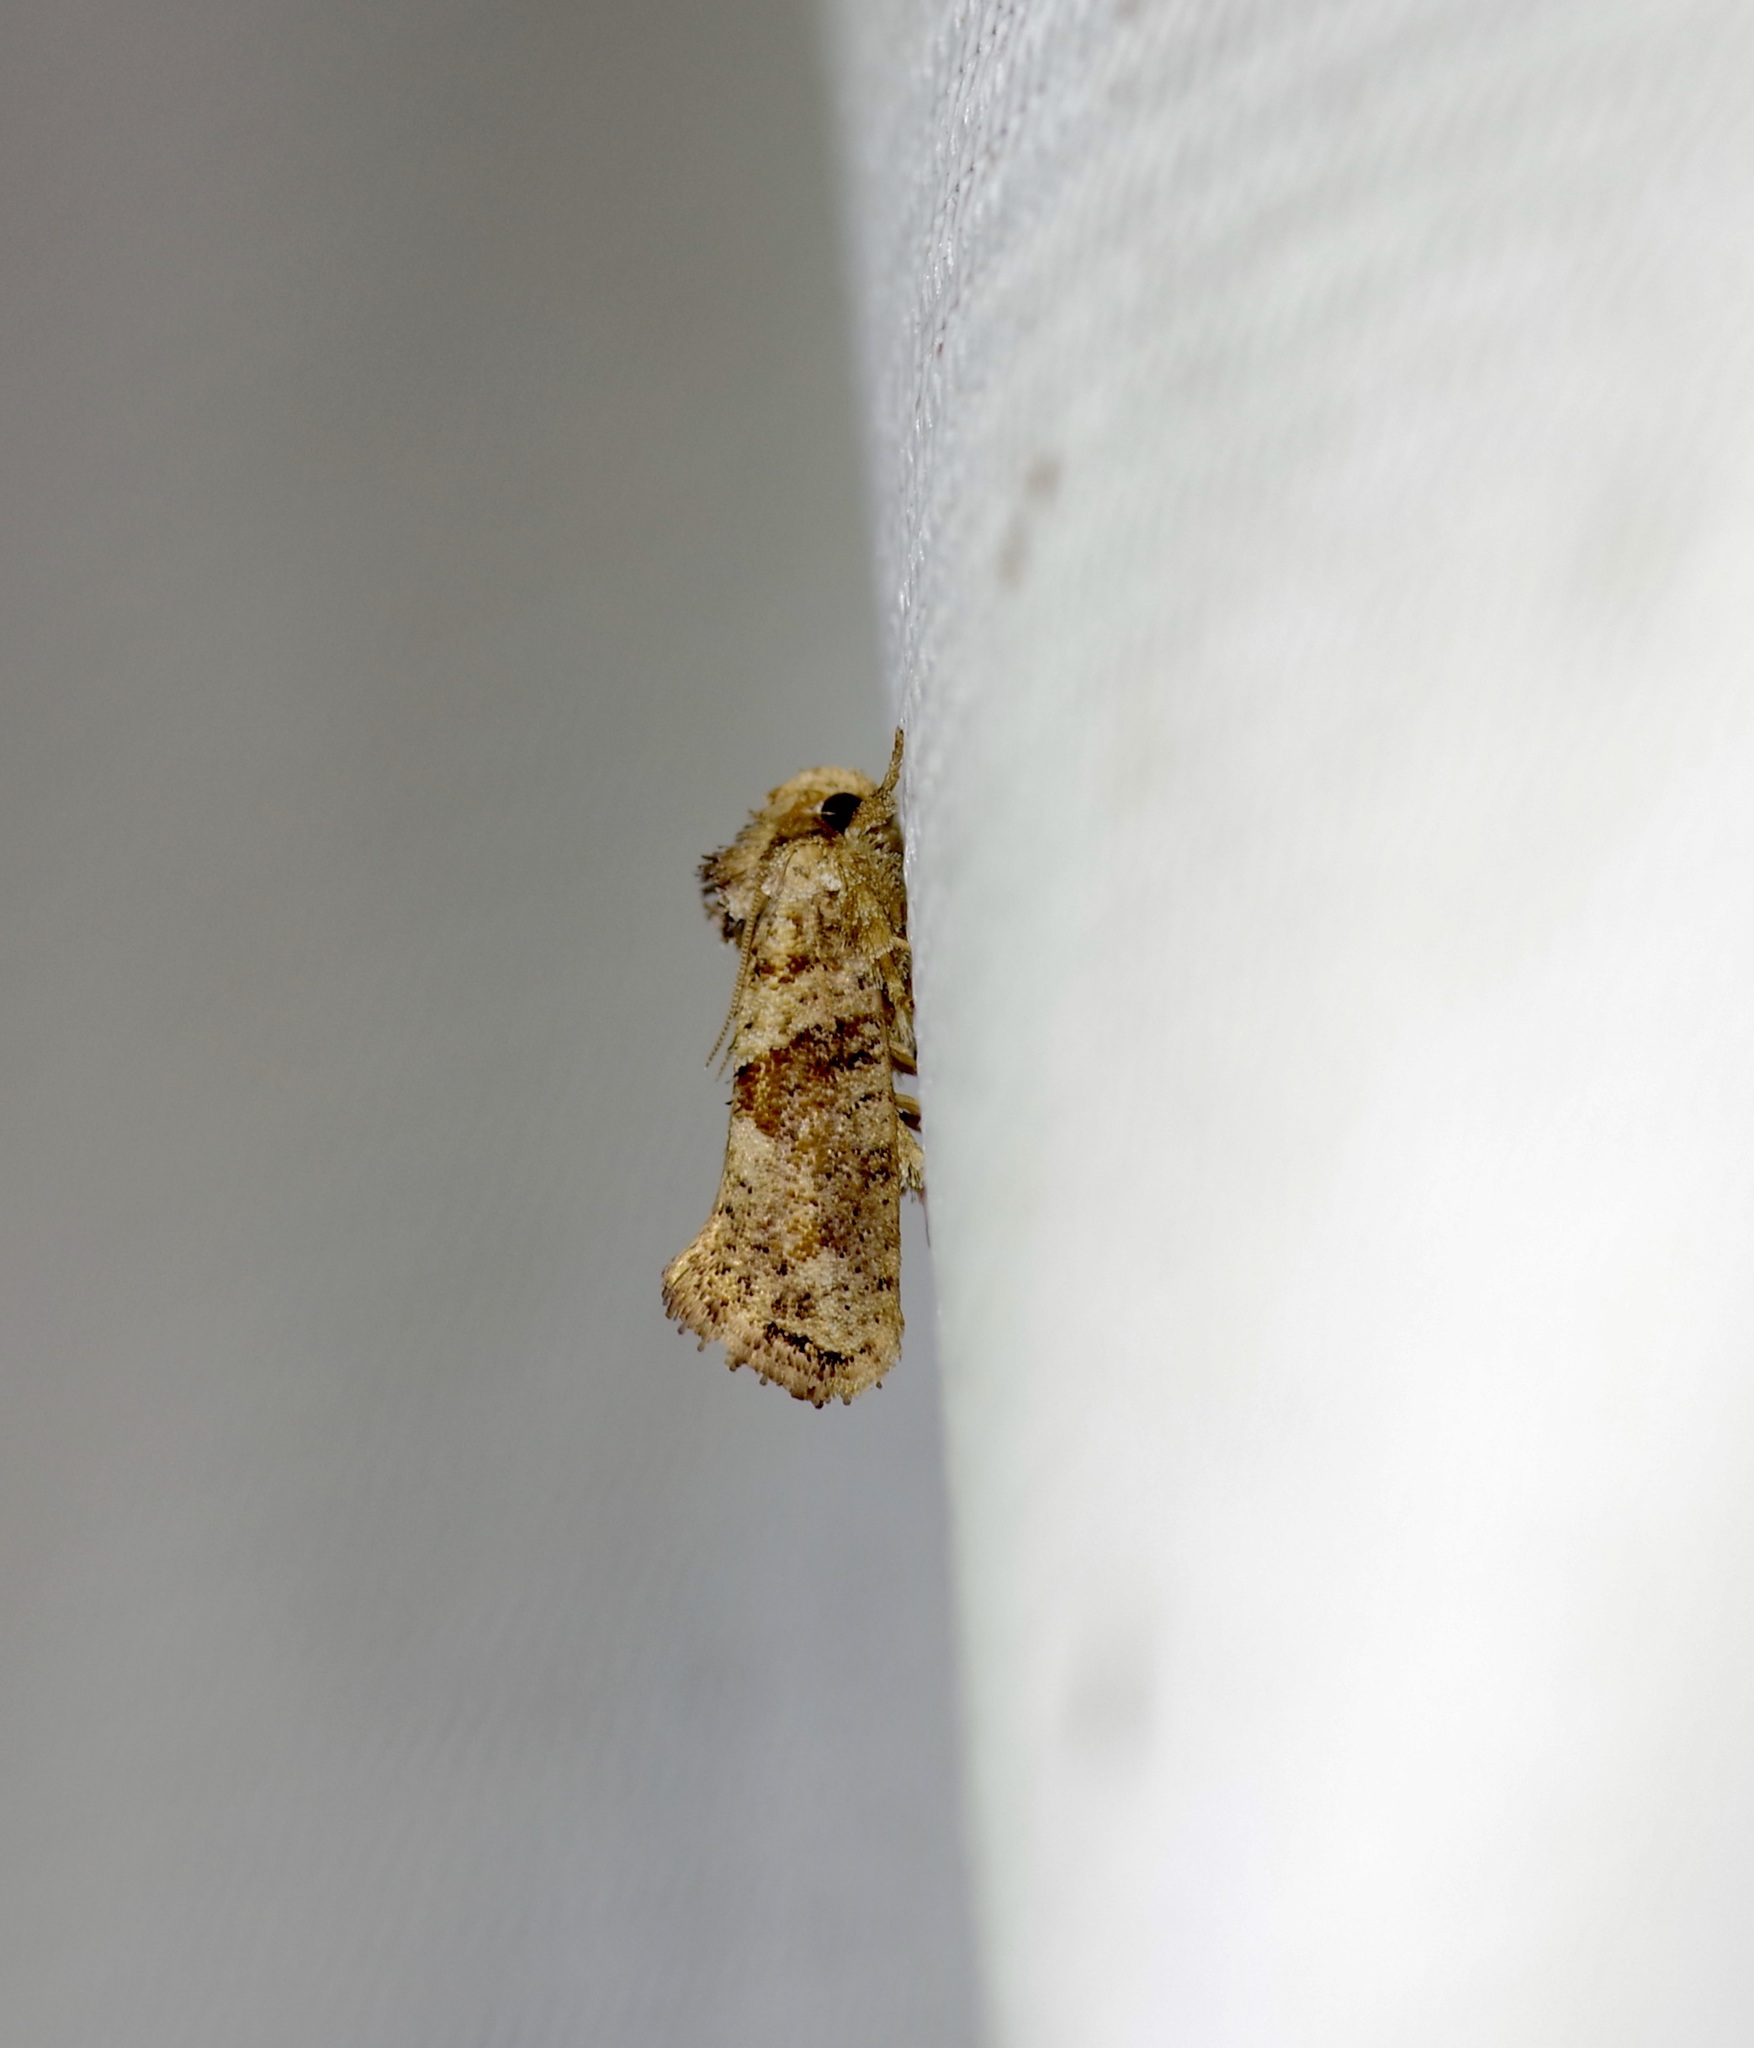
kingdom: Animalia
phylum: Arthropoda
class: Insecta
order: Lepidoptera
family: Tineidae
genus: Acrolophus
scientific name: Acrolophus piger
